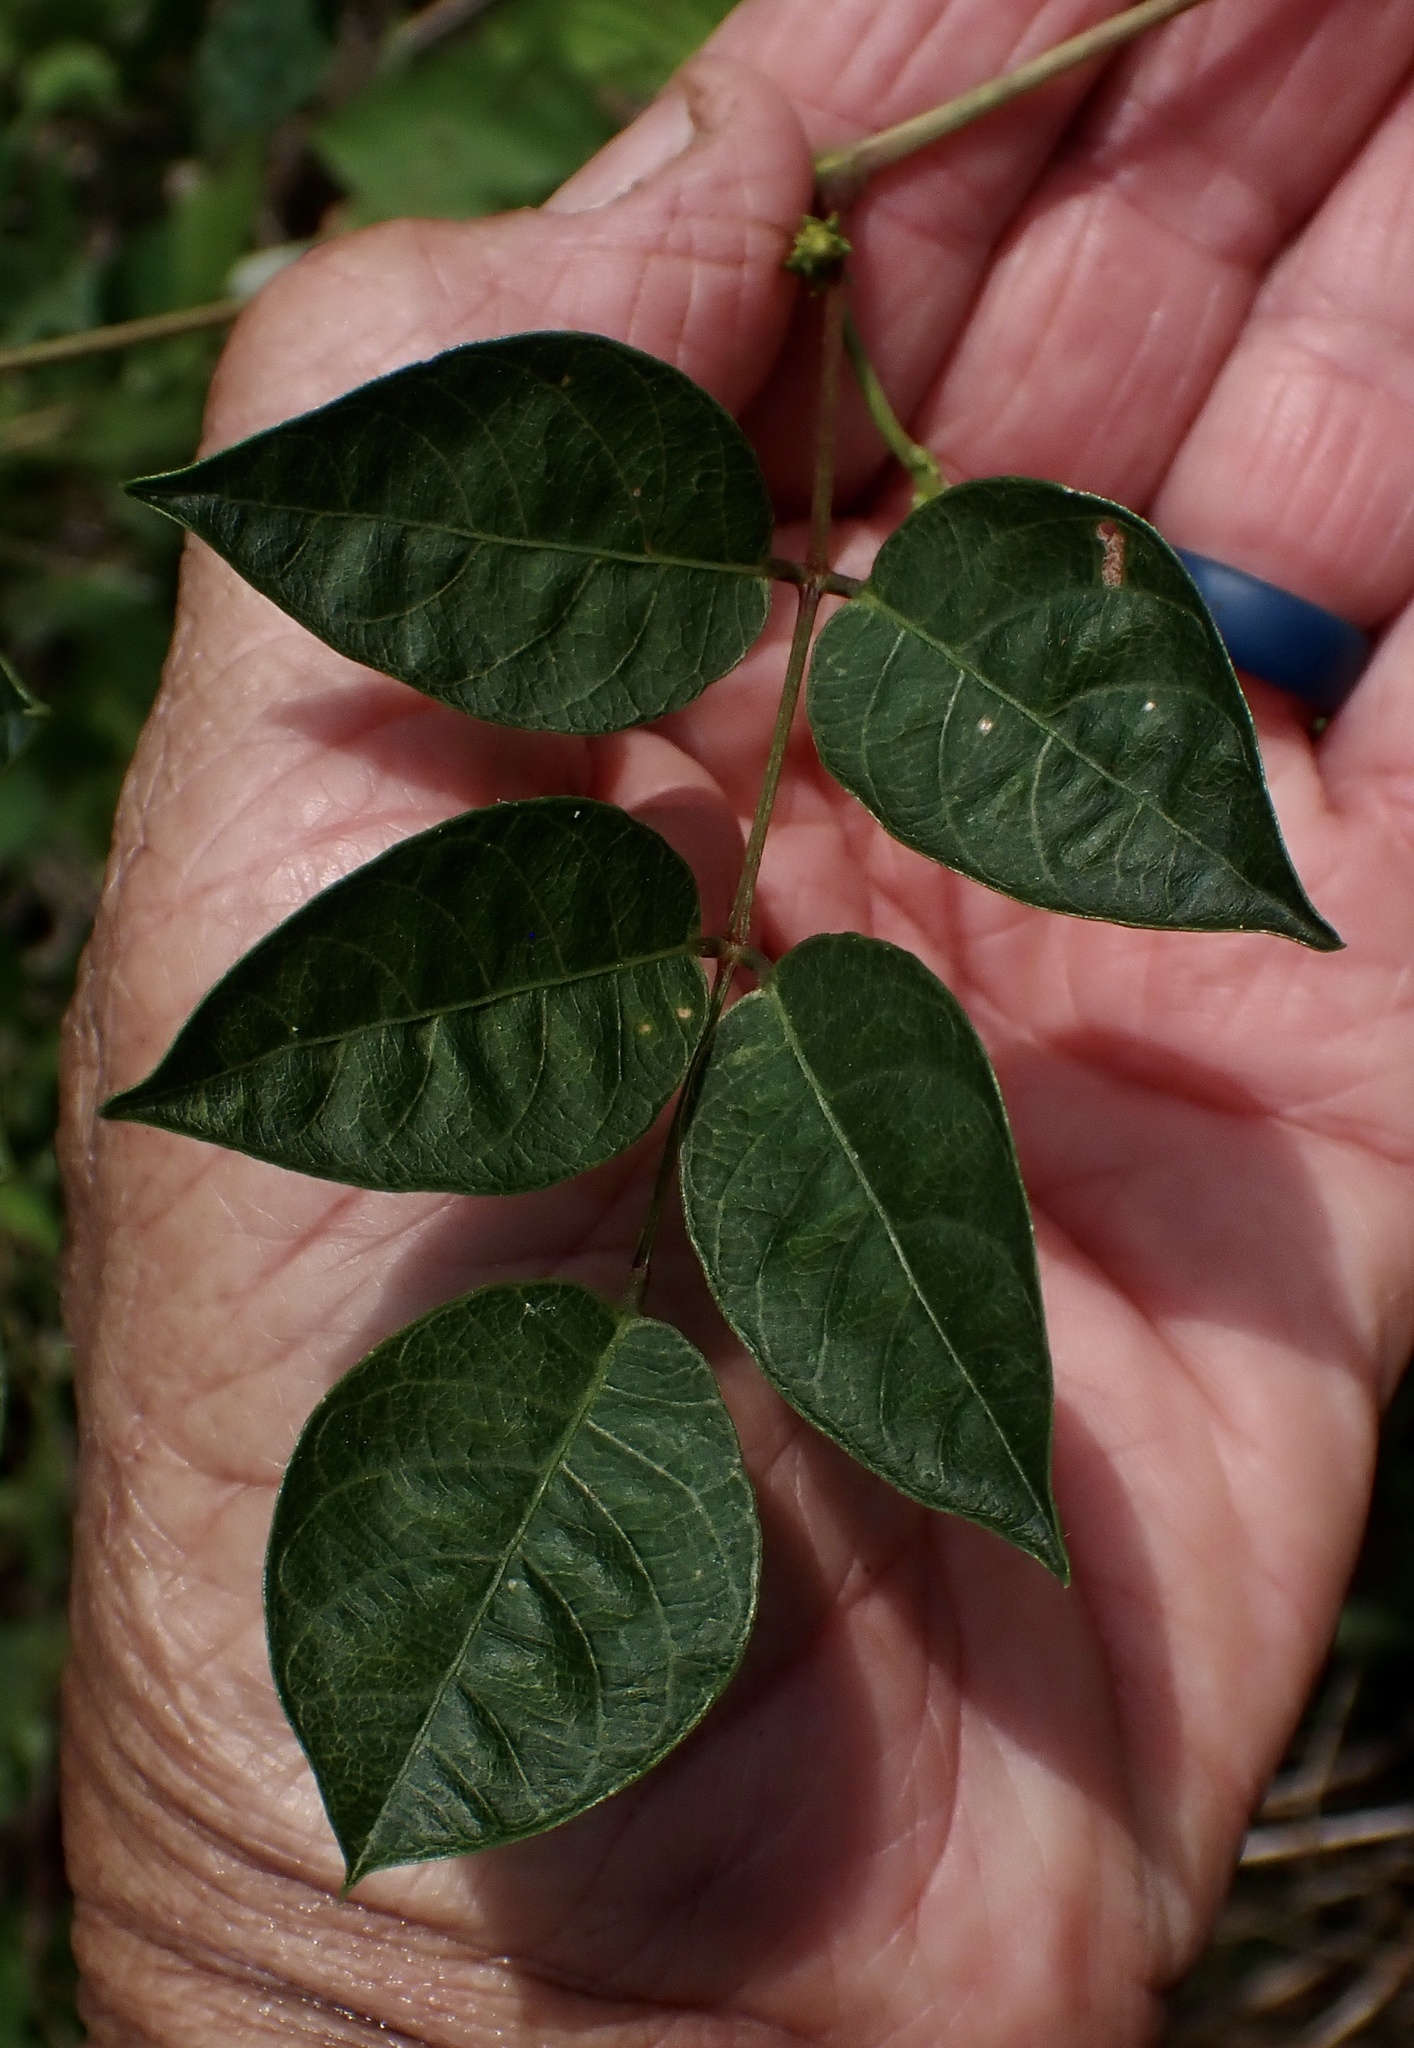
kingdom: Plantae
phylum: Tracheophyta
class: Magnoliopsida
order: Fabales
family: Fabaceae
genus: Apios
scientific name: Apios americana
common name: American potato-bean
